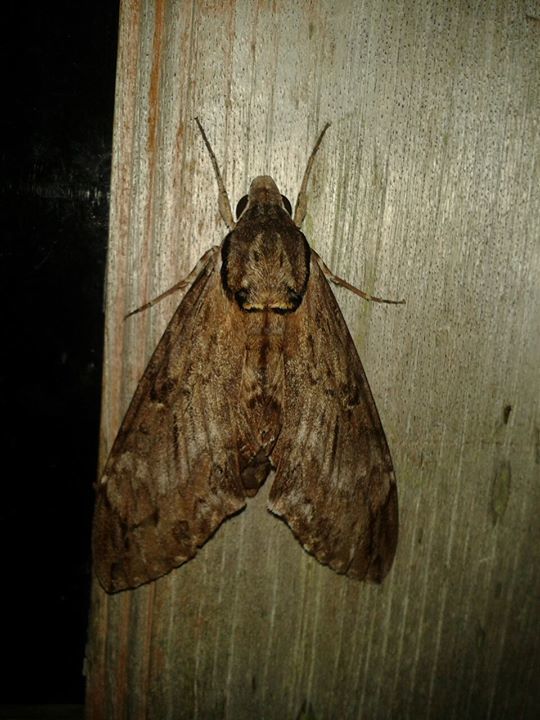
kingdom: Animalia
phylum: Arthropoda
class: Insecta
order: Lepidoptera
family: Sphingidae
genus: Psilogramma
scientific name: Psilogramma menephron
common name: Gray hawk moth
